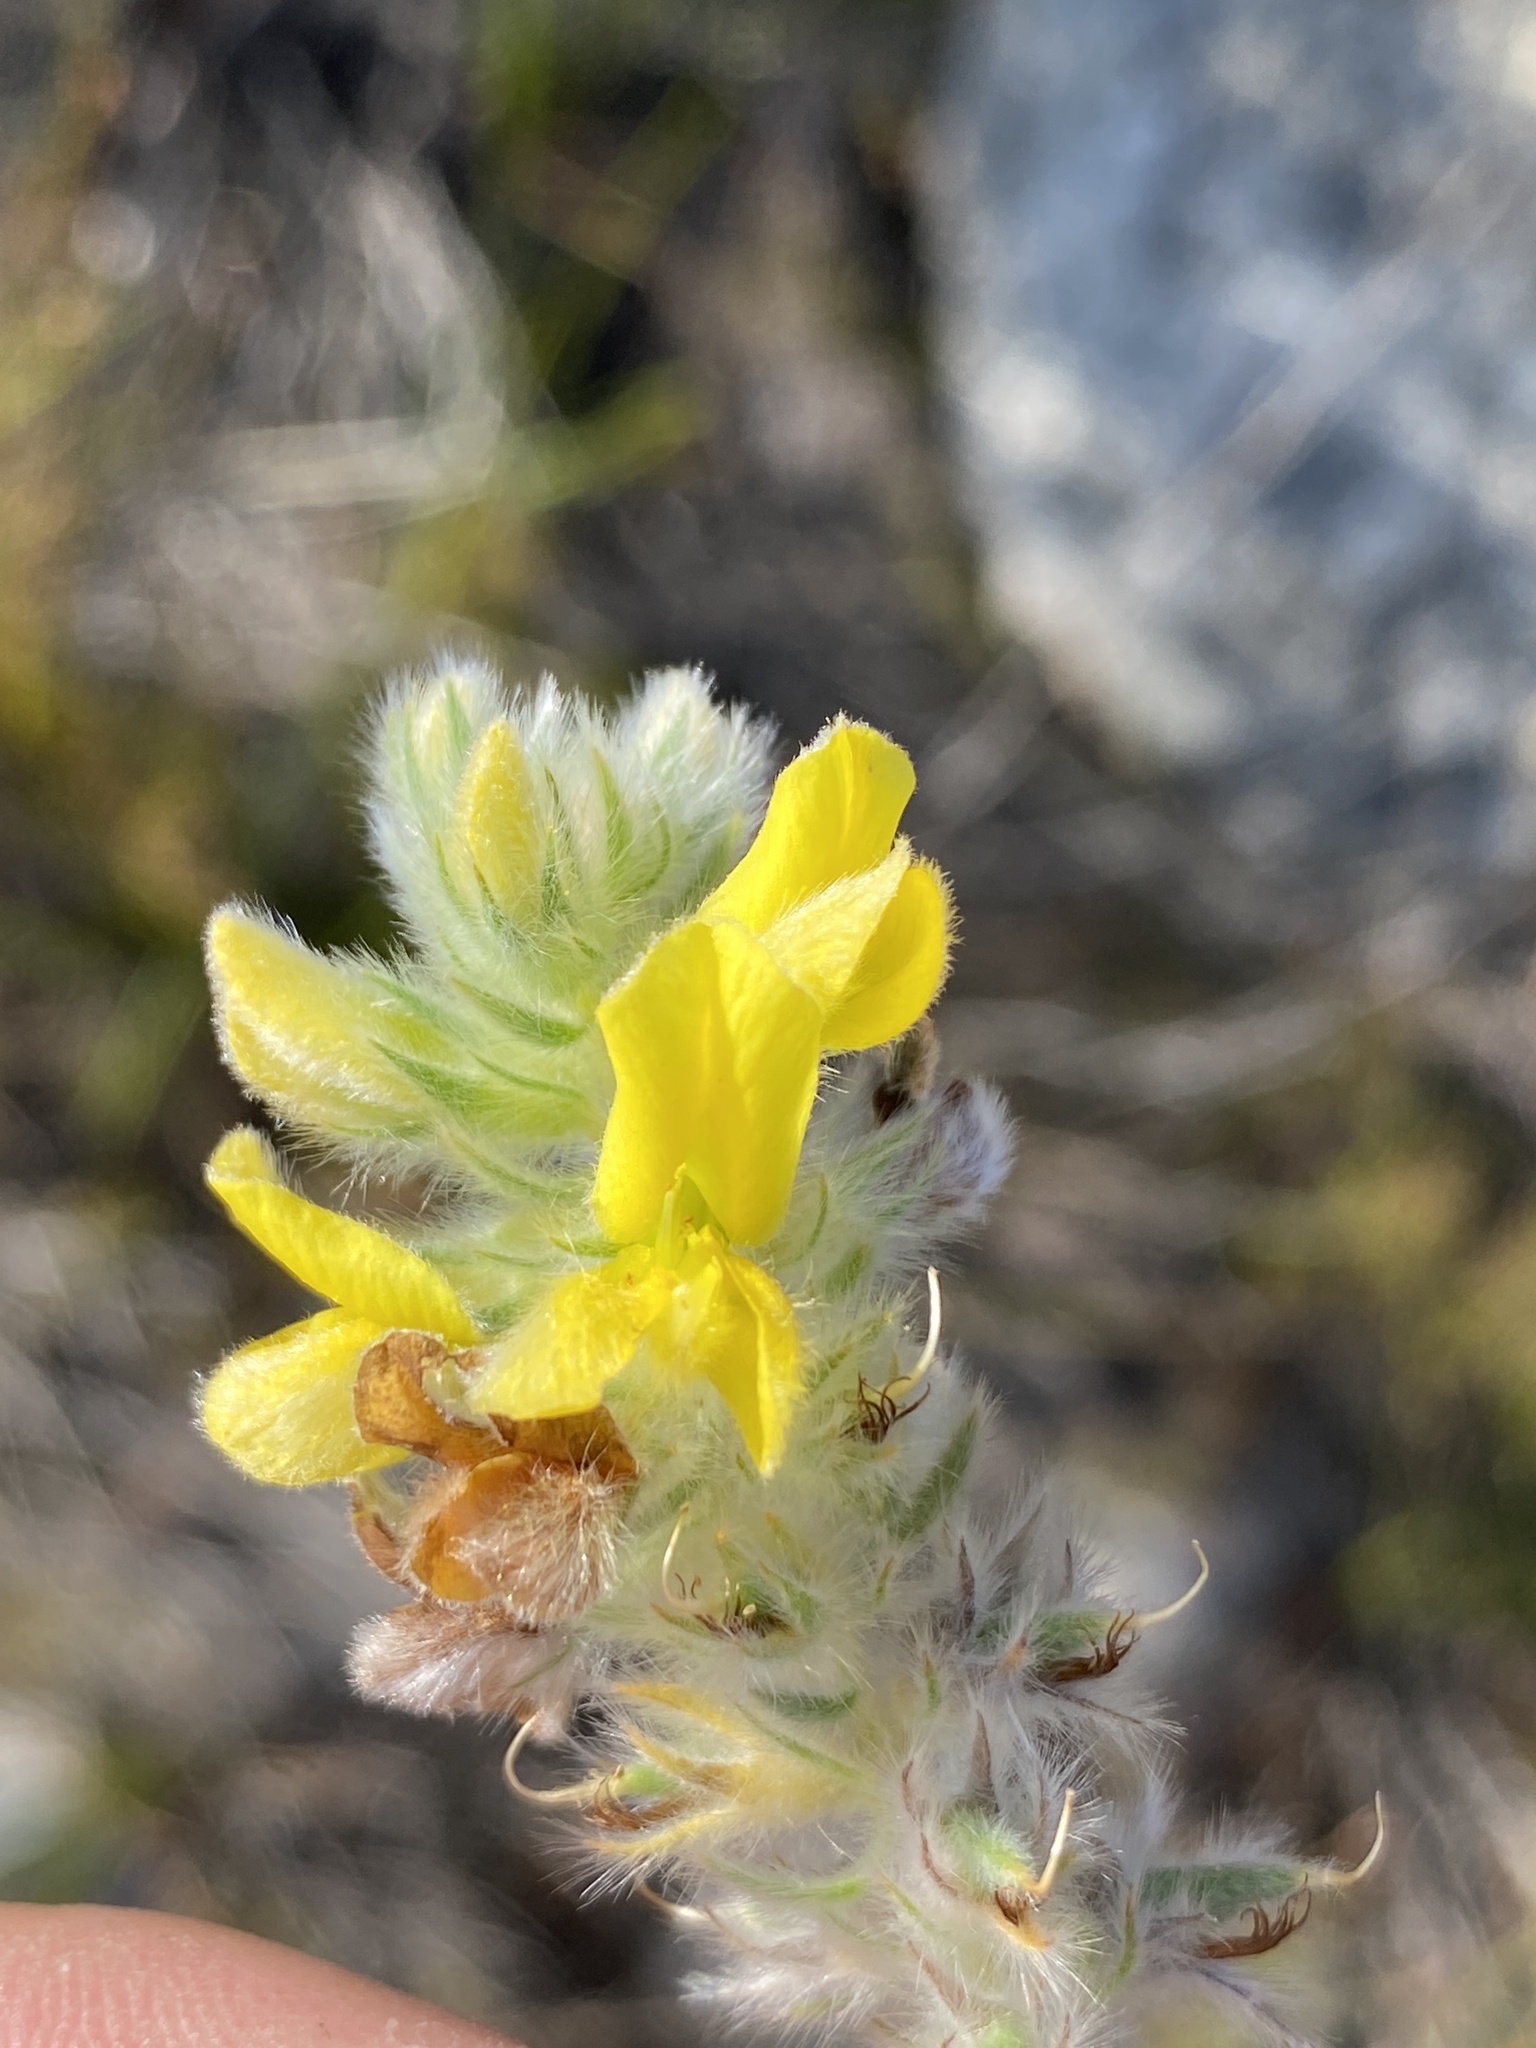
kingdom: Plantae
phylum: Tracheophyta
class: Magnoliopsida
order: Fabales
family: Fabaceae
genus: Aspalathus
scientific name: Aspalathus aemula
